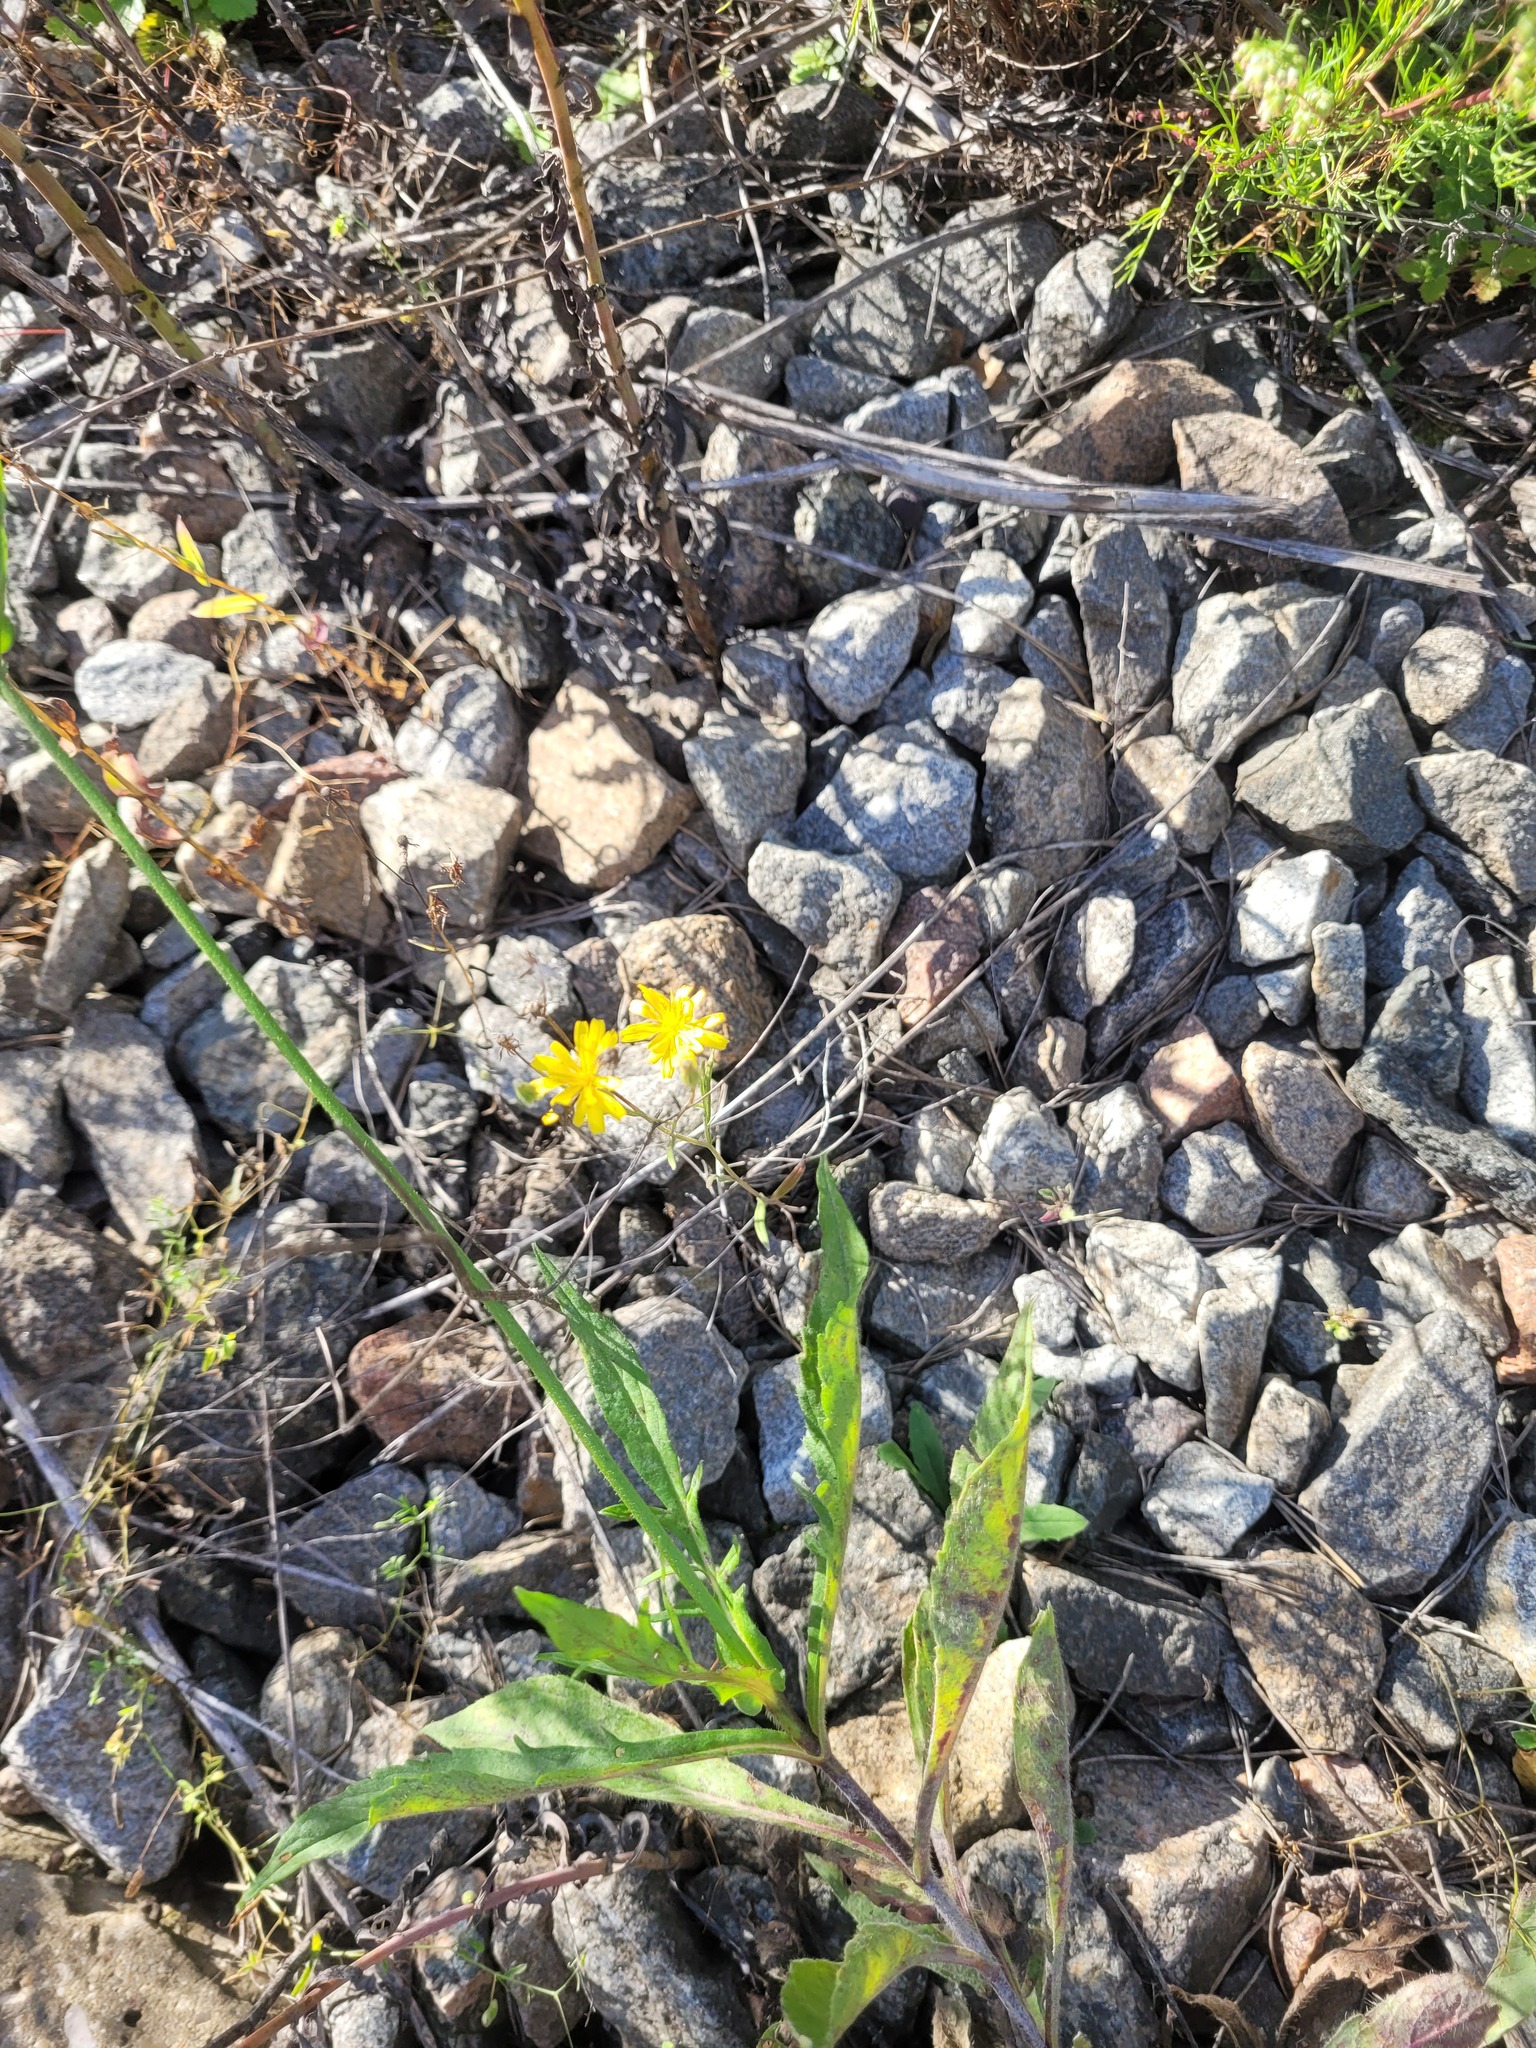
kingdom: Plantae
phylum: Tracheophyta
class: Magnoliopsida
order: Asterales
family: Asteraceae
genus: Crepis
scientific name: Crepis tectorum
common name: Narrow-leaved hawk's-beard
